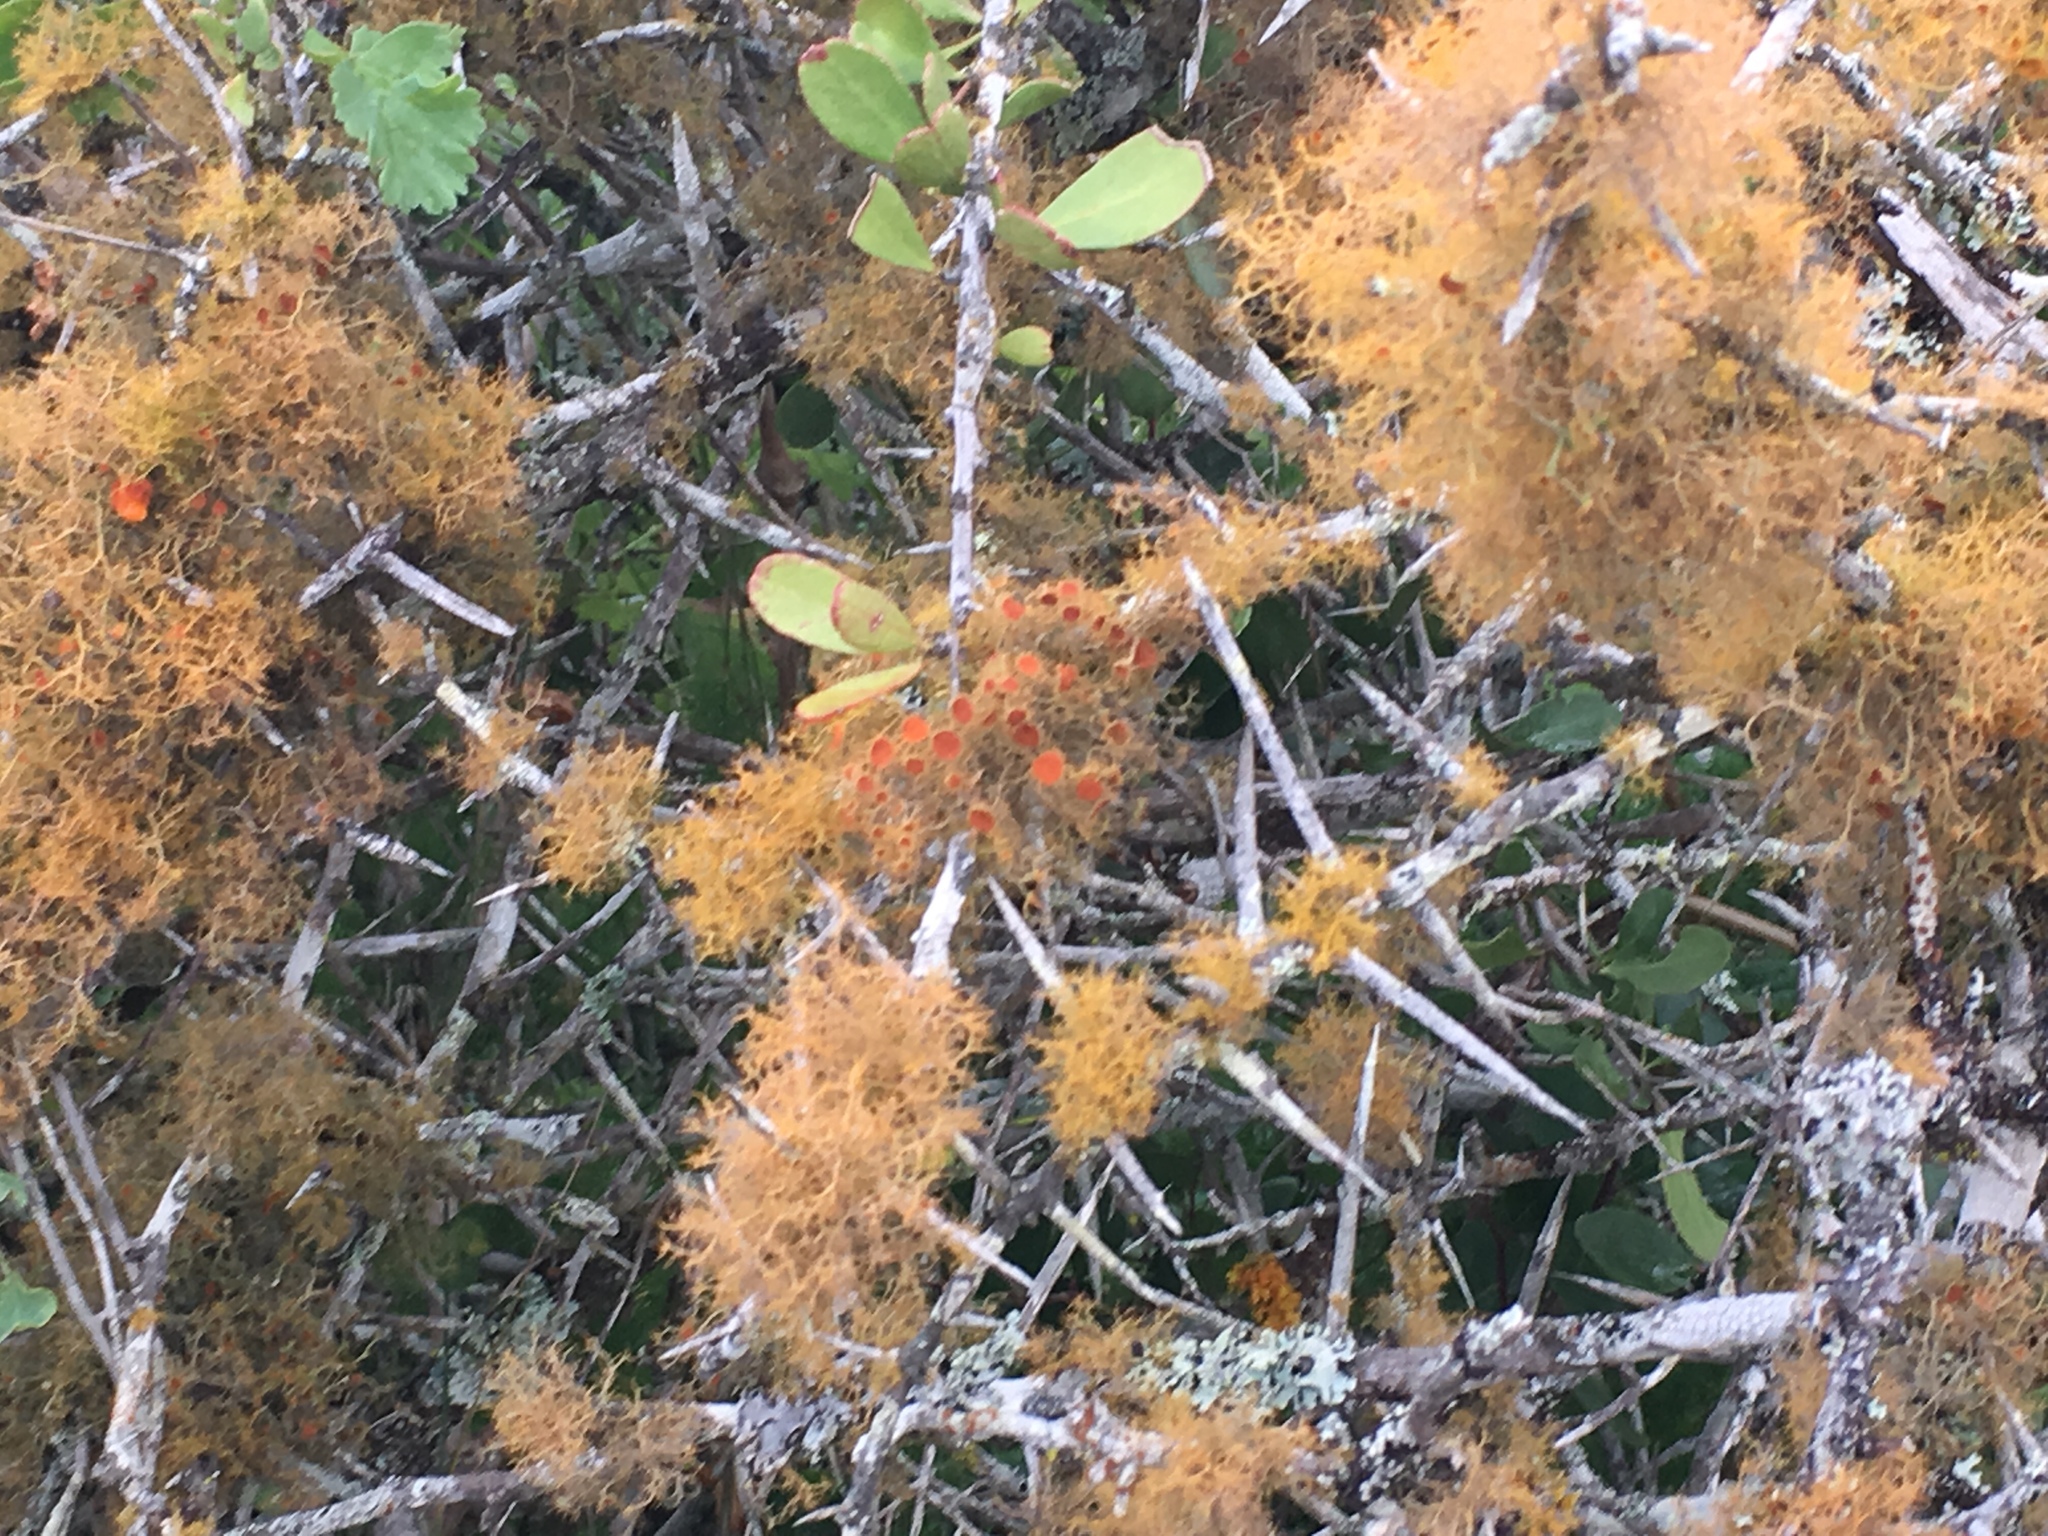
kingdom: Fungi
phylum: Ascomycota
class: Lecanoromycetes
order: Teloschistales
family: Teloschistaceae
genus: Teloschistes
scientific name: Teloschistes capensis
